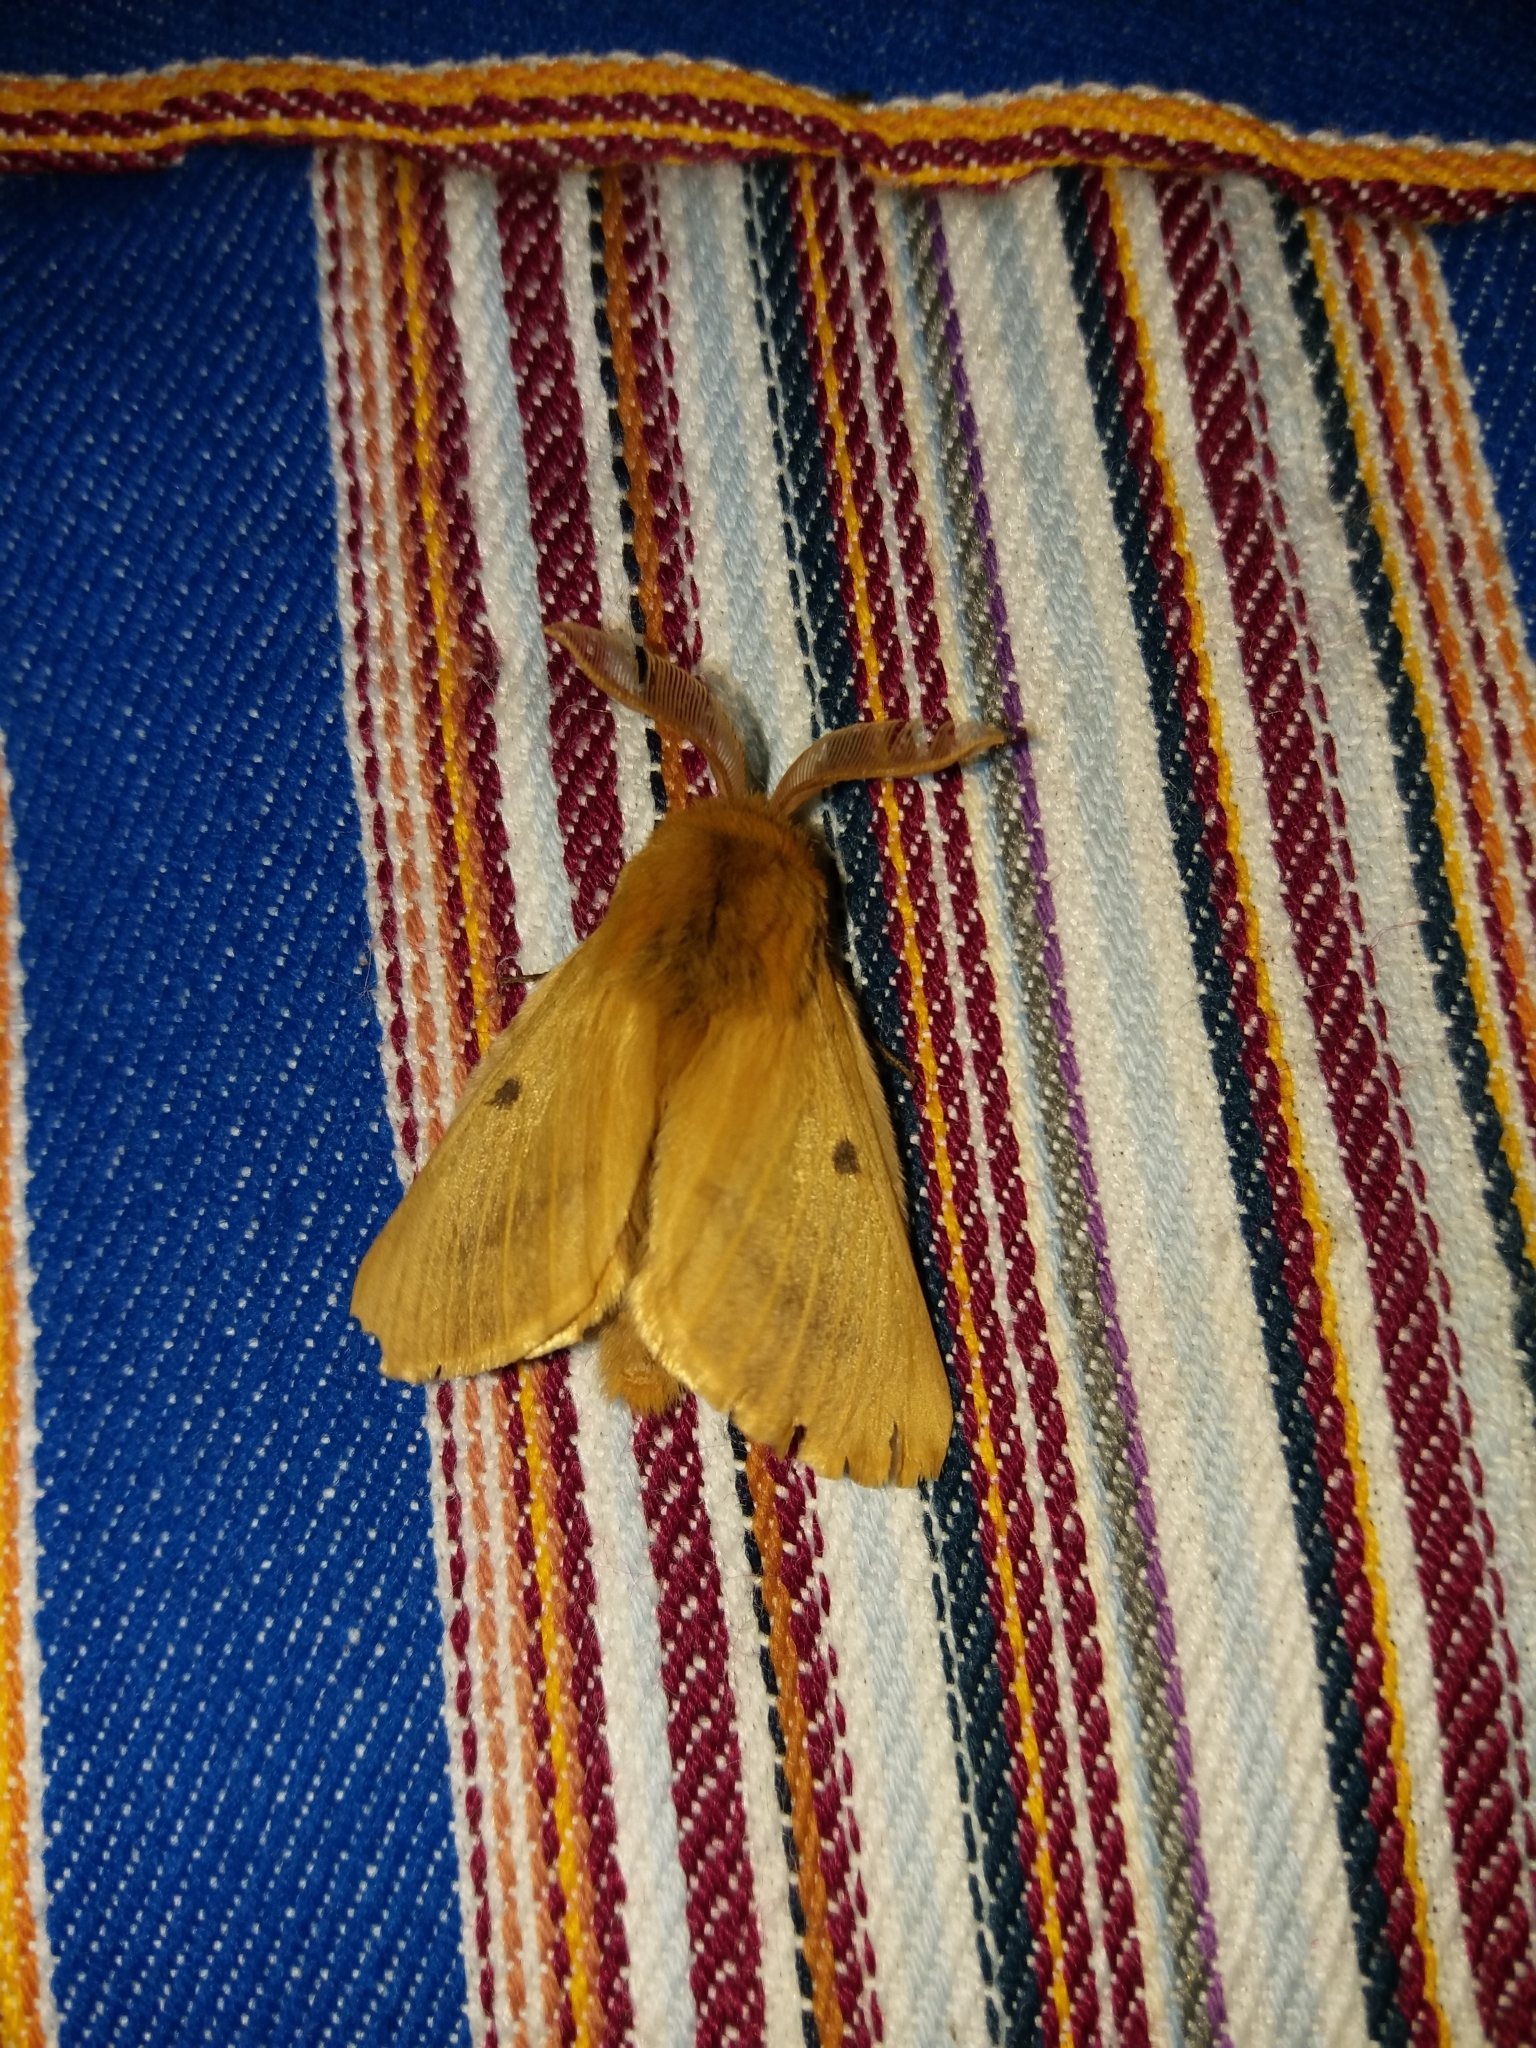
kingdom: Animalia
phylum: Arthropoda
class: Insecta
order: Lepidoptera
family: Brahmaeidae
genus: Lemonia
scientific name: Lemonia vallantini
